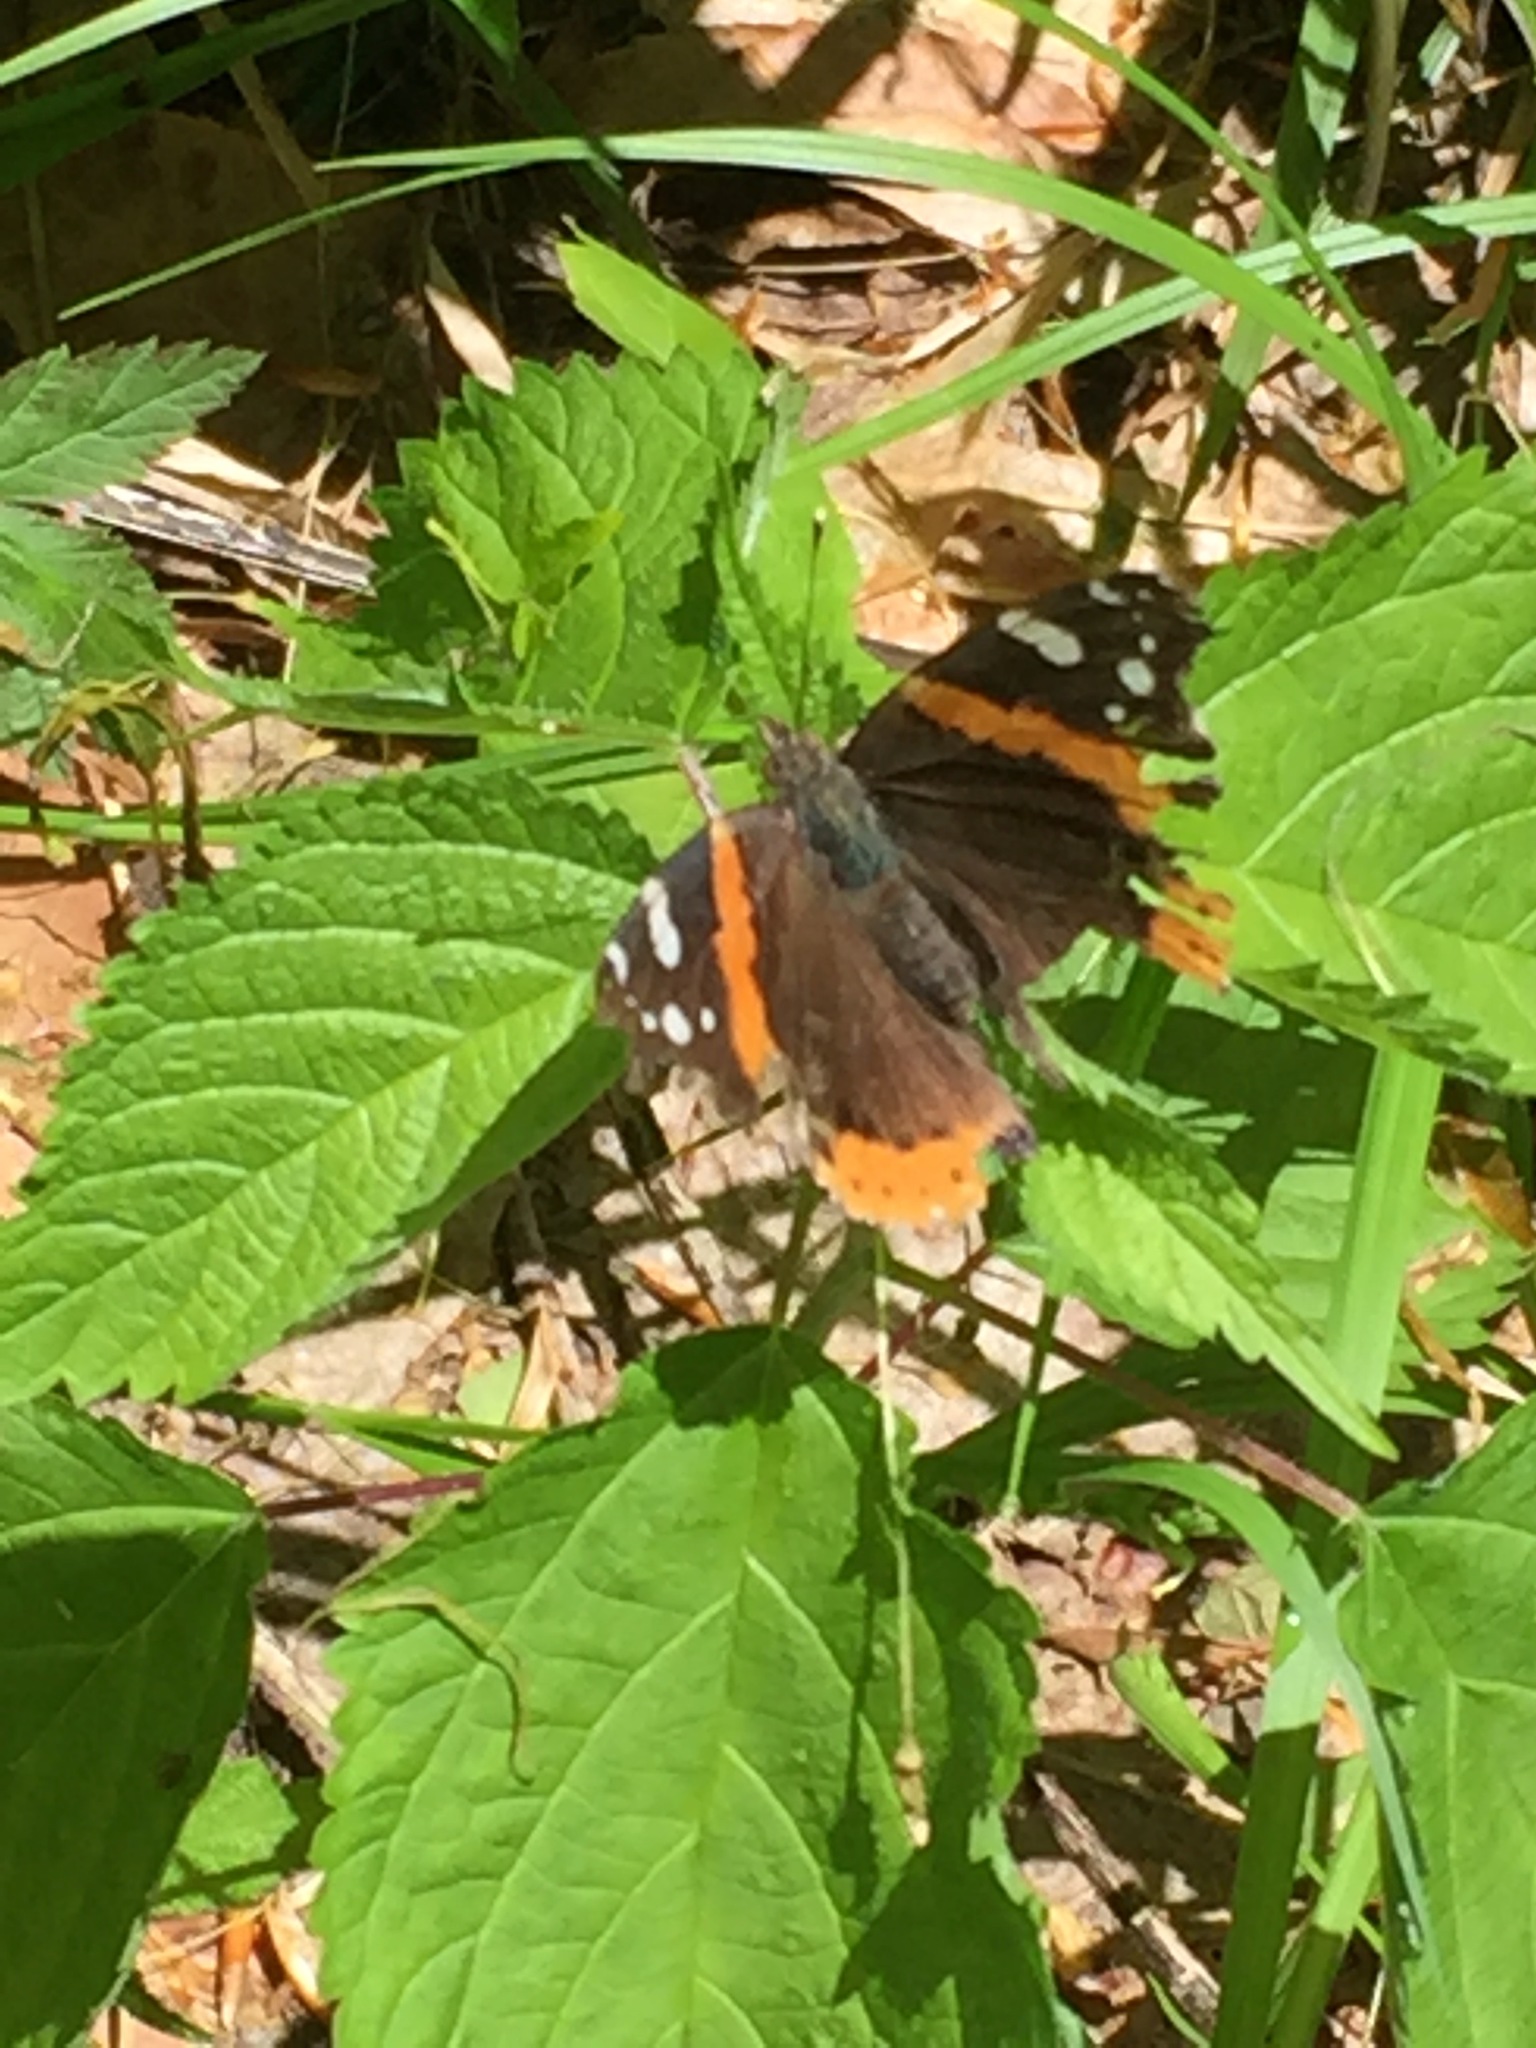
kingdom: Animalia
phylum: Arthropoda
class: Insecta
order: Lepidoptera
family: Nymphalidae
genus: Vanessa
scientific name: Vanessa atalanta
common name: Red admiral
